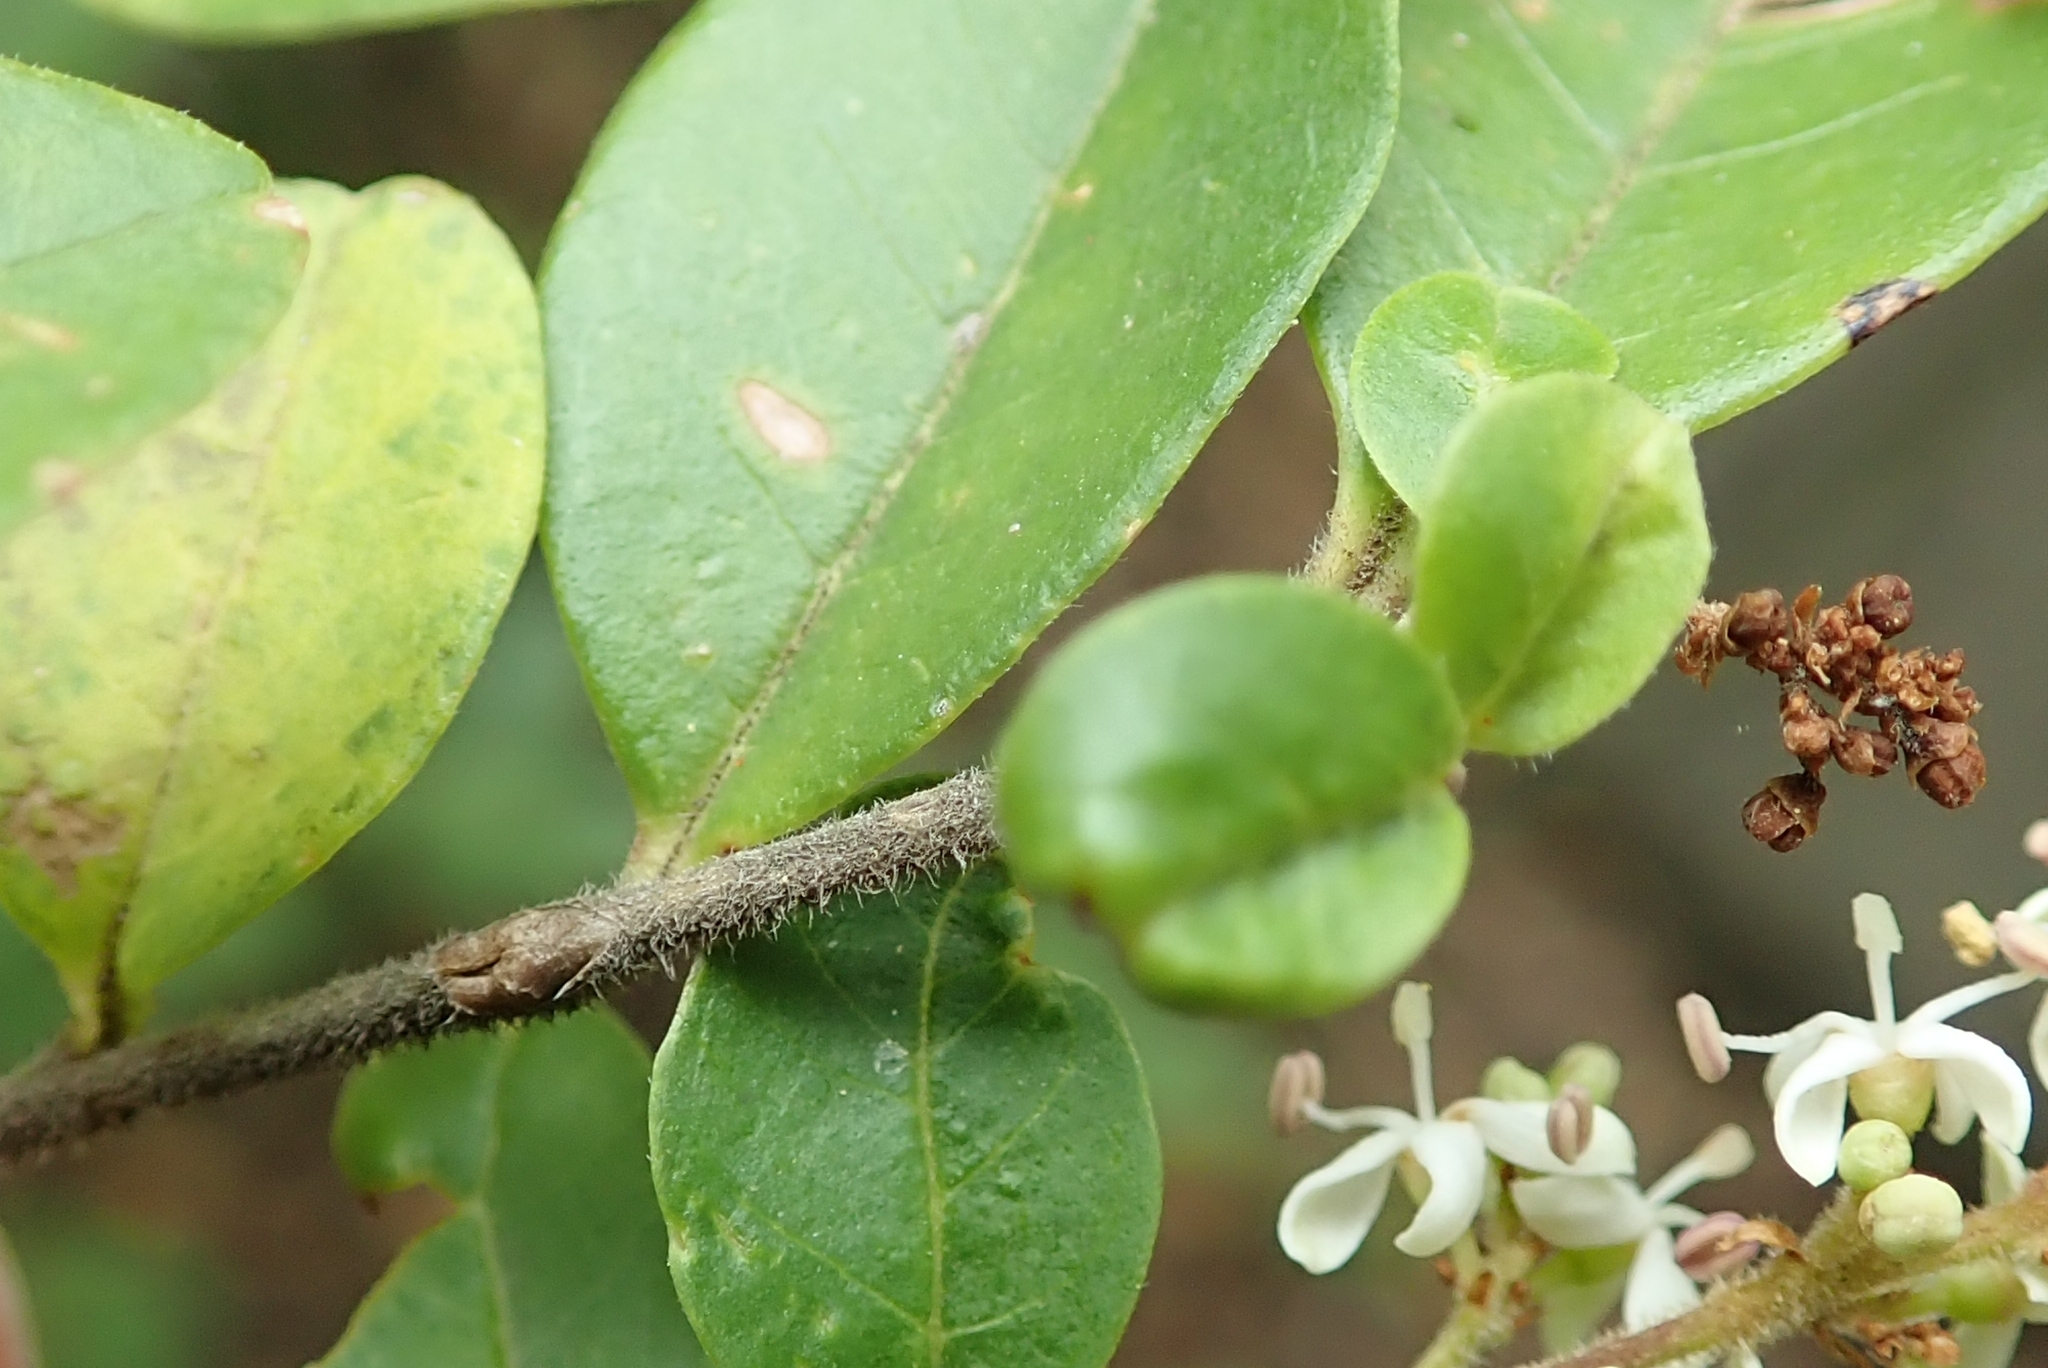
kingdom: Plantae
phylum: Tracheophyta
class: Magnoliopsida
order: Lamiales
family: Oleaceae
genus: Ligustrum
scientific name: Ligustrum sinense
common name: Chinese privet
